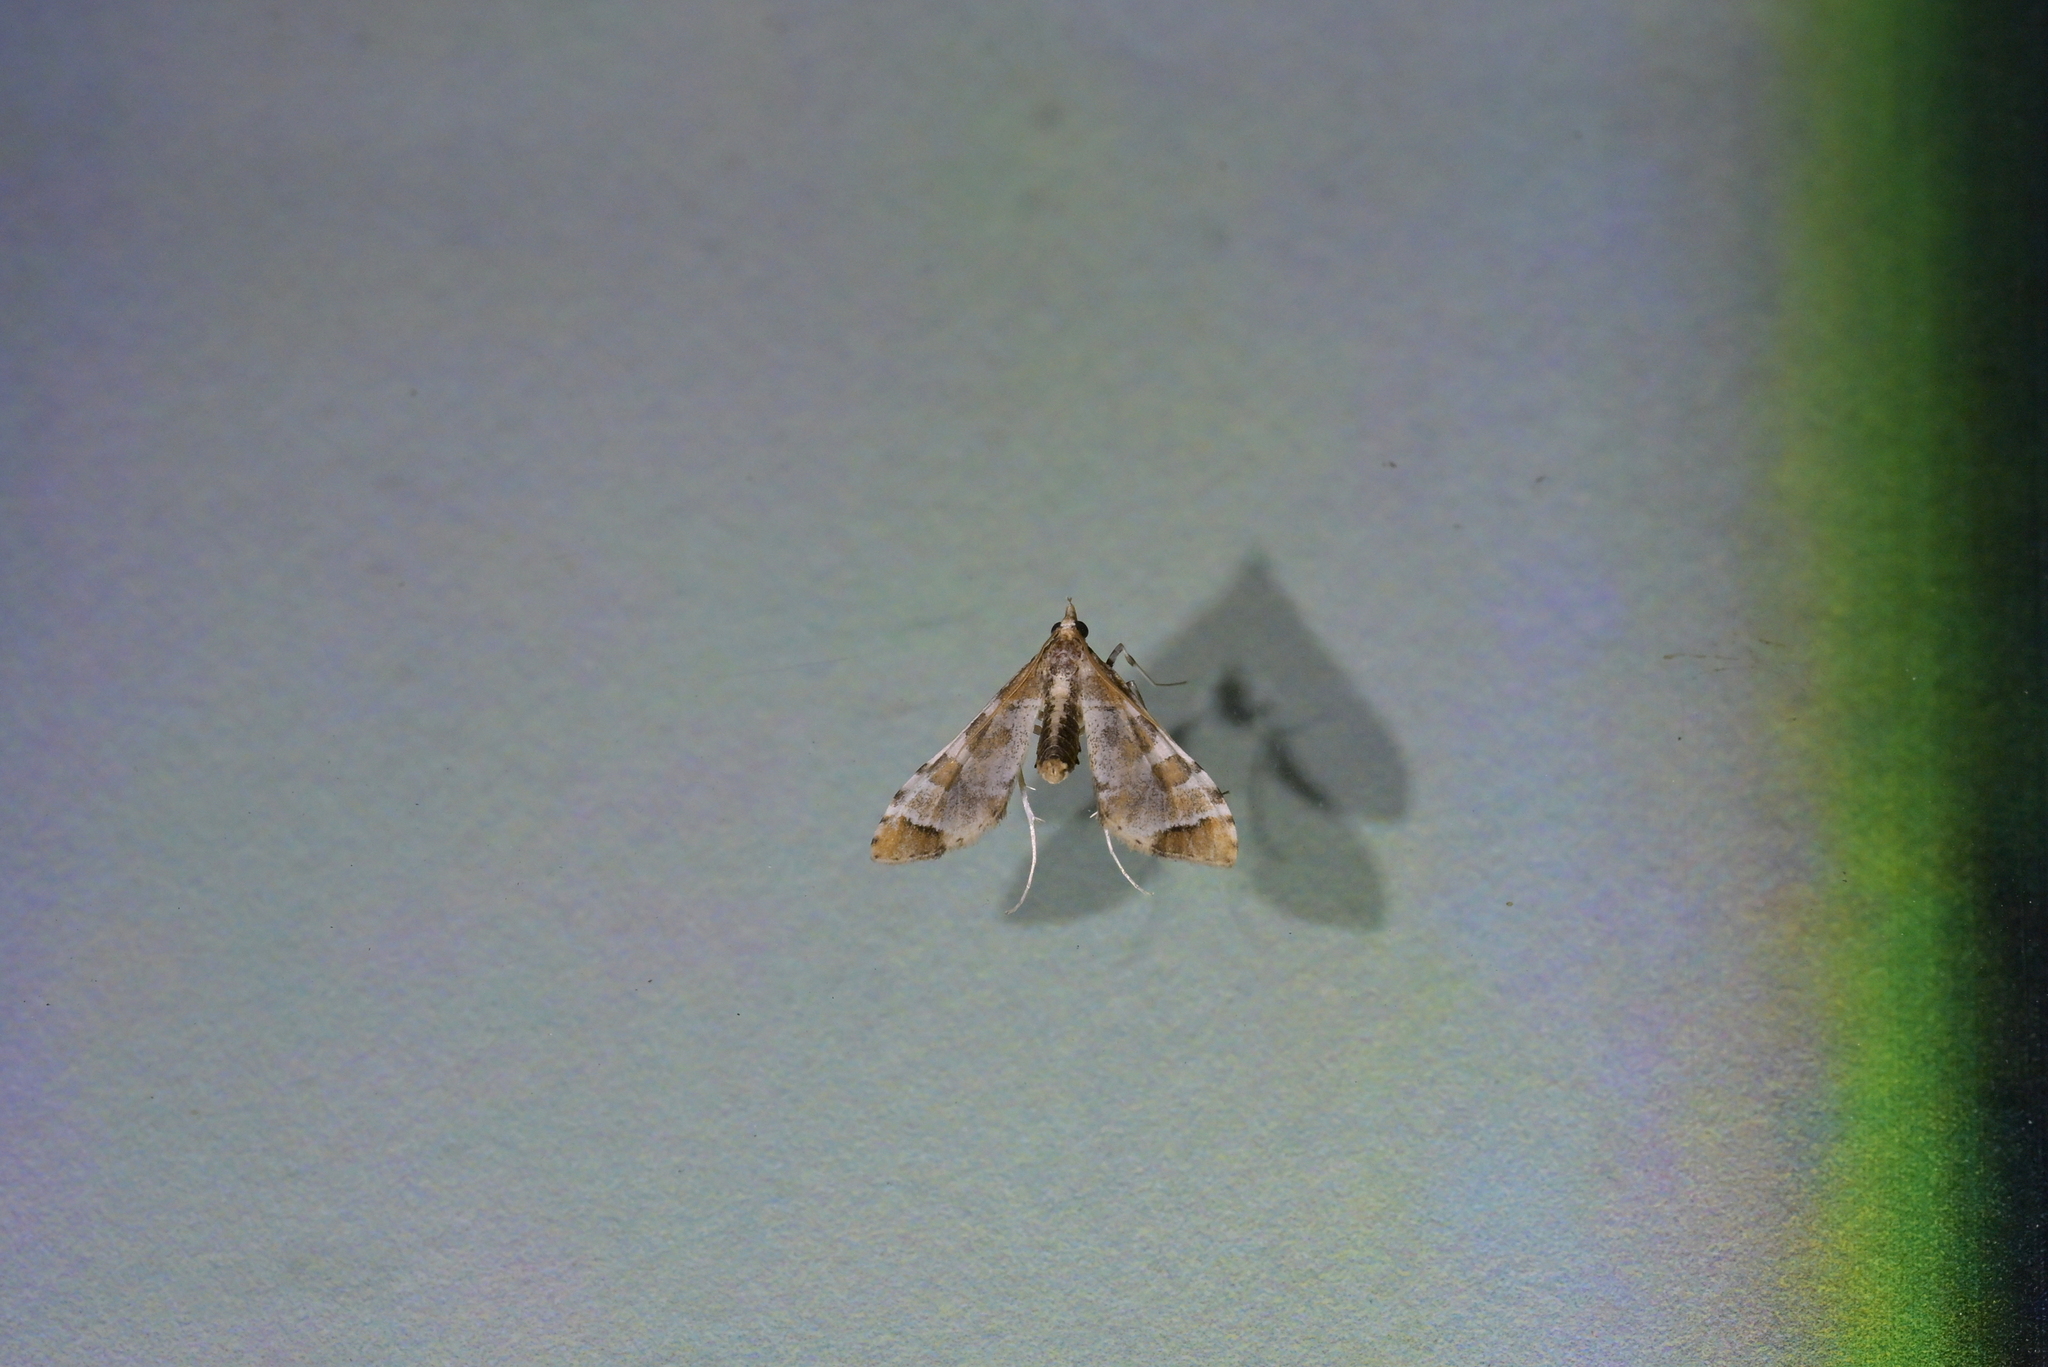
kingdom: Animalia
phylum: Arthropoda
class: Insecta
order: Lepidoptera
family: Crambidae
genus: Sceliodes
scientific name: Sceliodes cordalis
